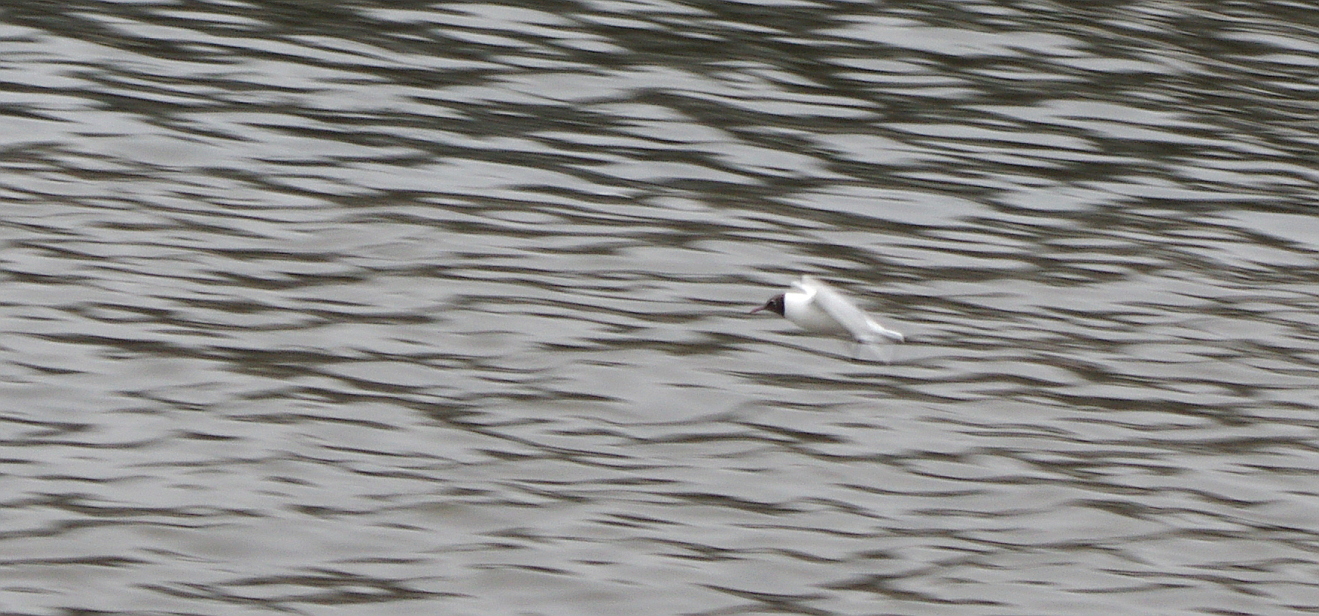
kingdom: Animalia
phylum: Chordata
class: Aves
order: Charadriiformes
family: Laridae
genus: Chroicocephalus
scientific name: Chroicocephalus ridibundus
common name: Black-headed gull
